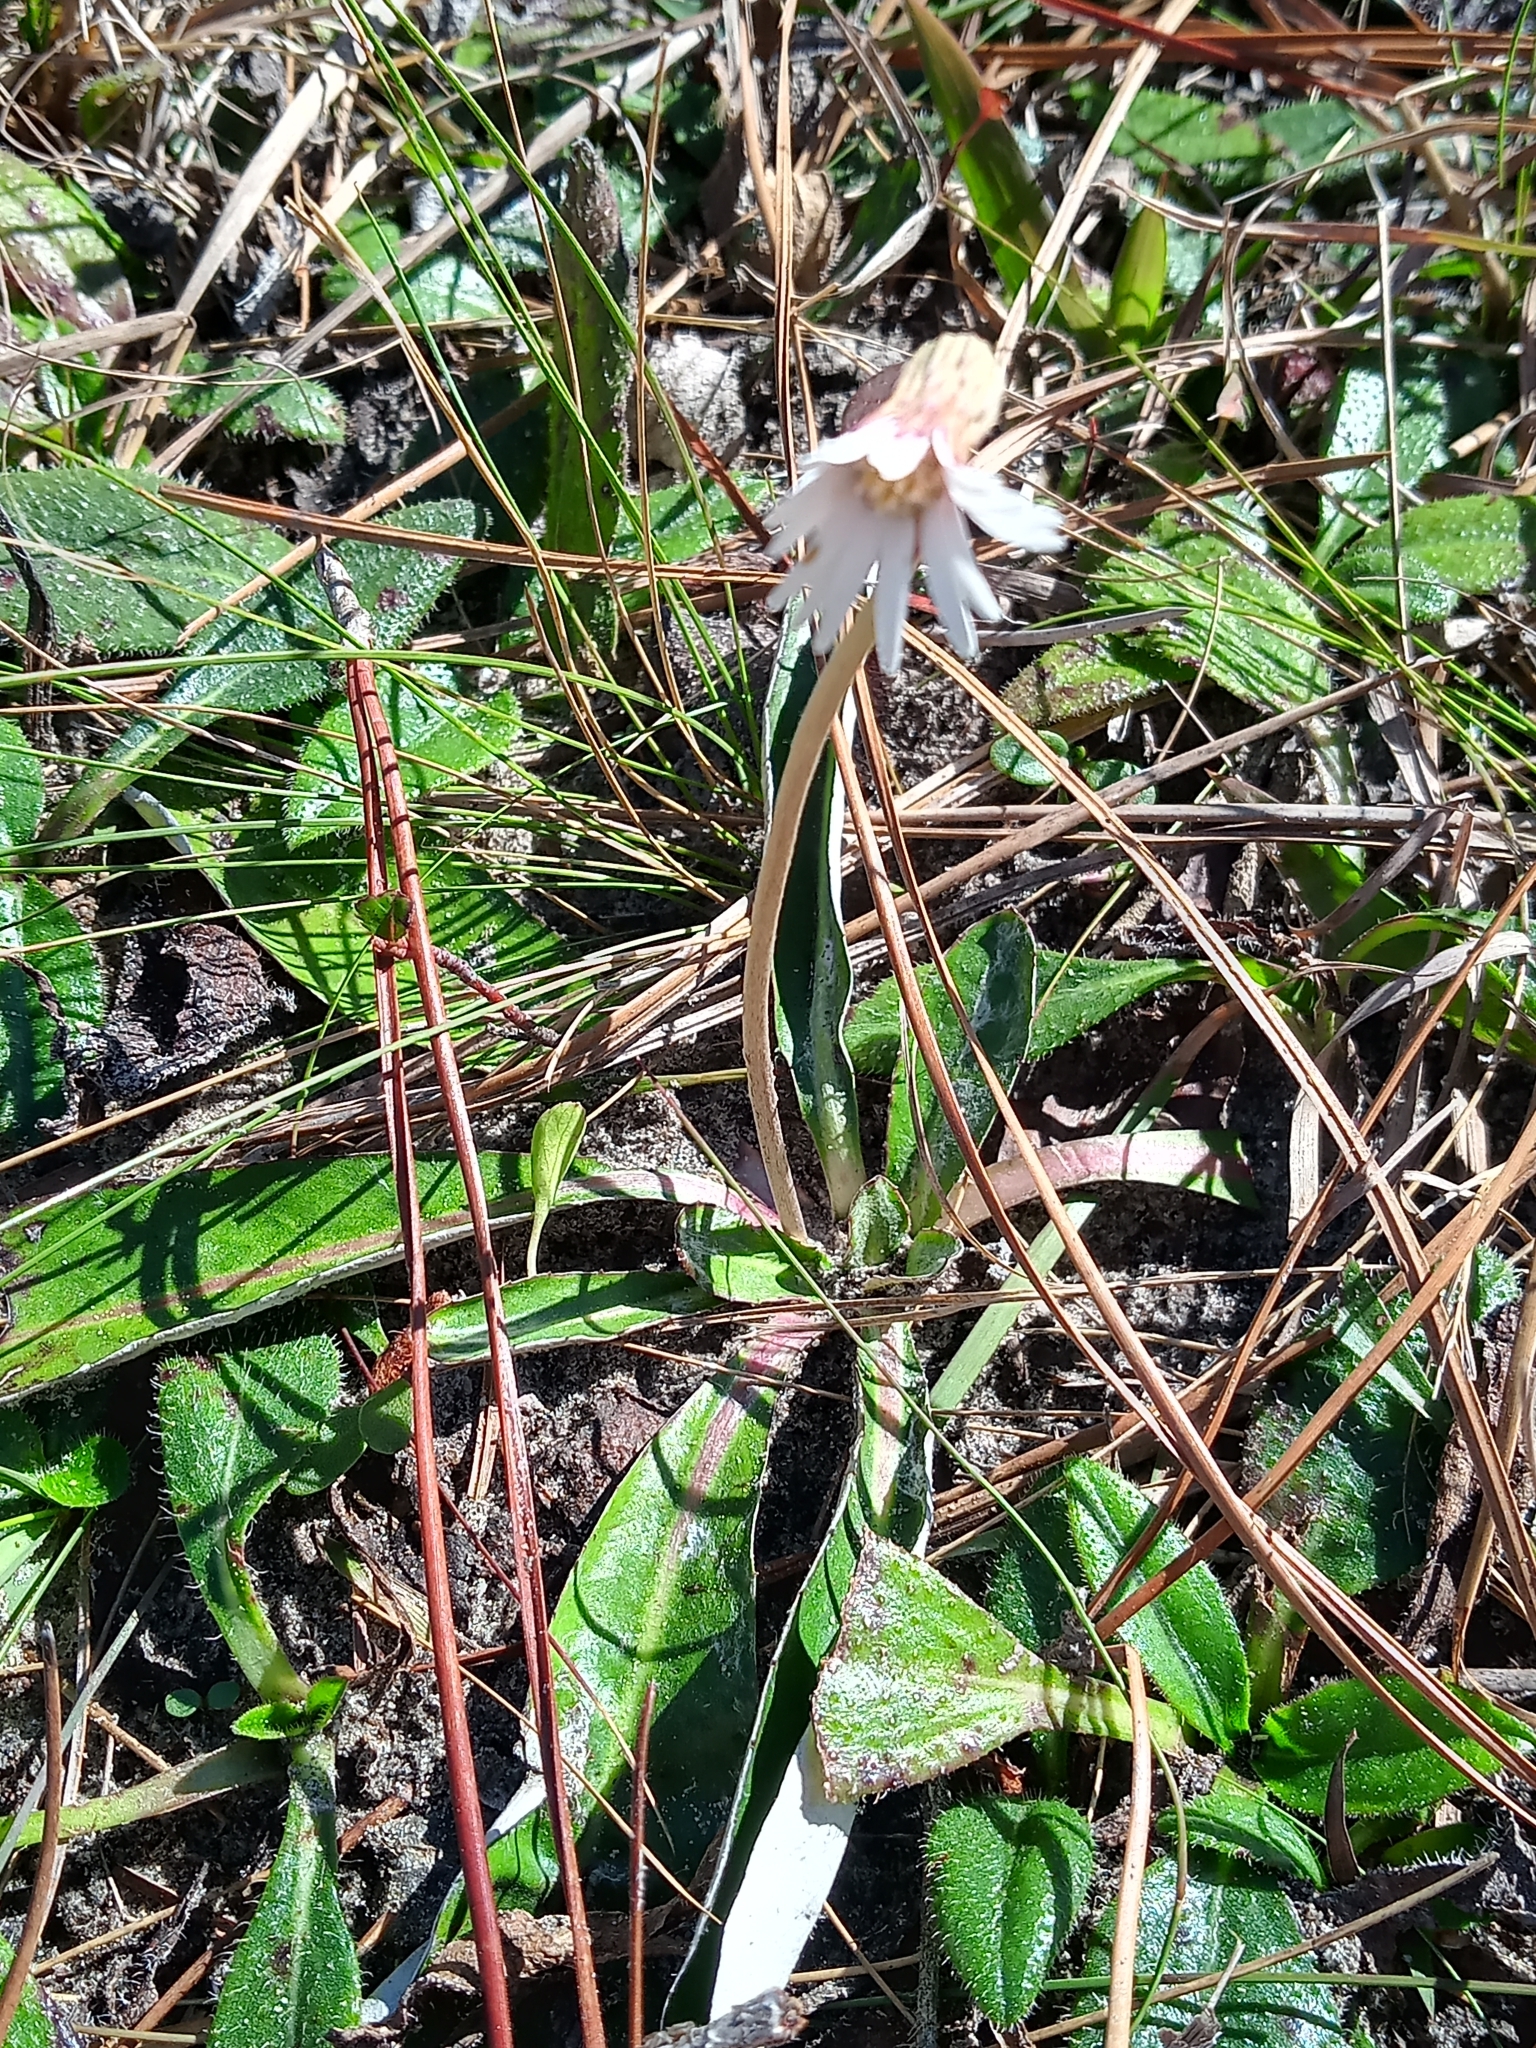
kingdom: Plantae
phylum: Tracheophyta
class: Magnoliopsida
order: Asterales
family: Asteraceae
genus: Chaptalia
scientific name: Chaptalia tomentosa
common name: Woolly sunbonnet
